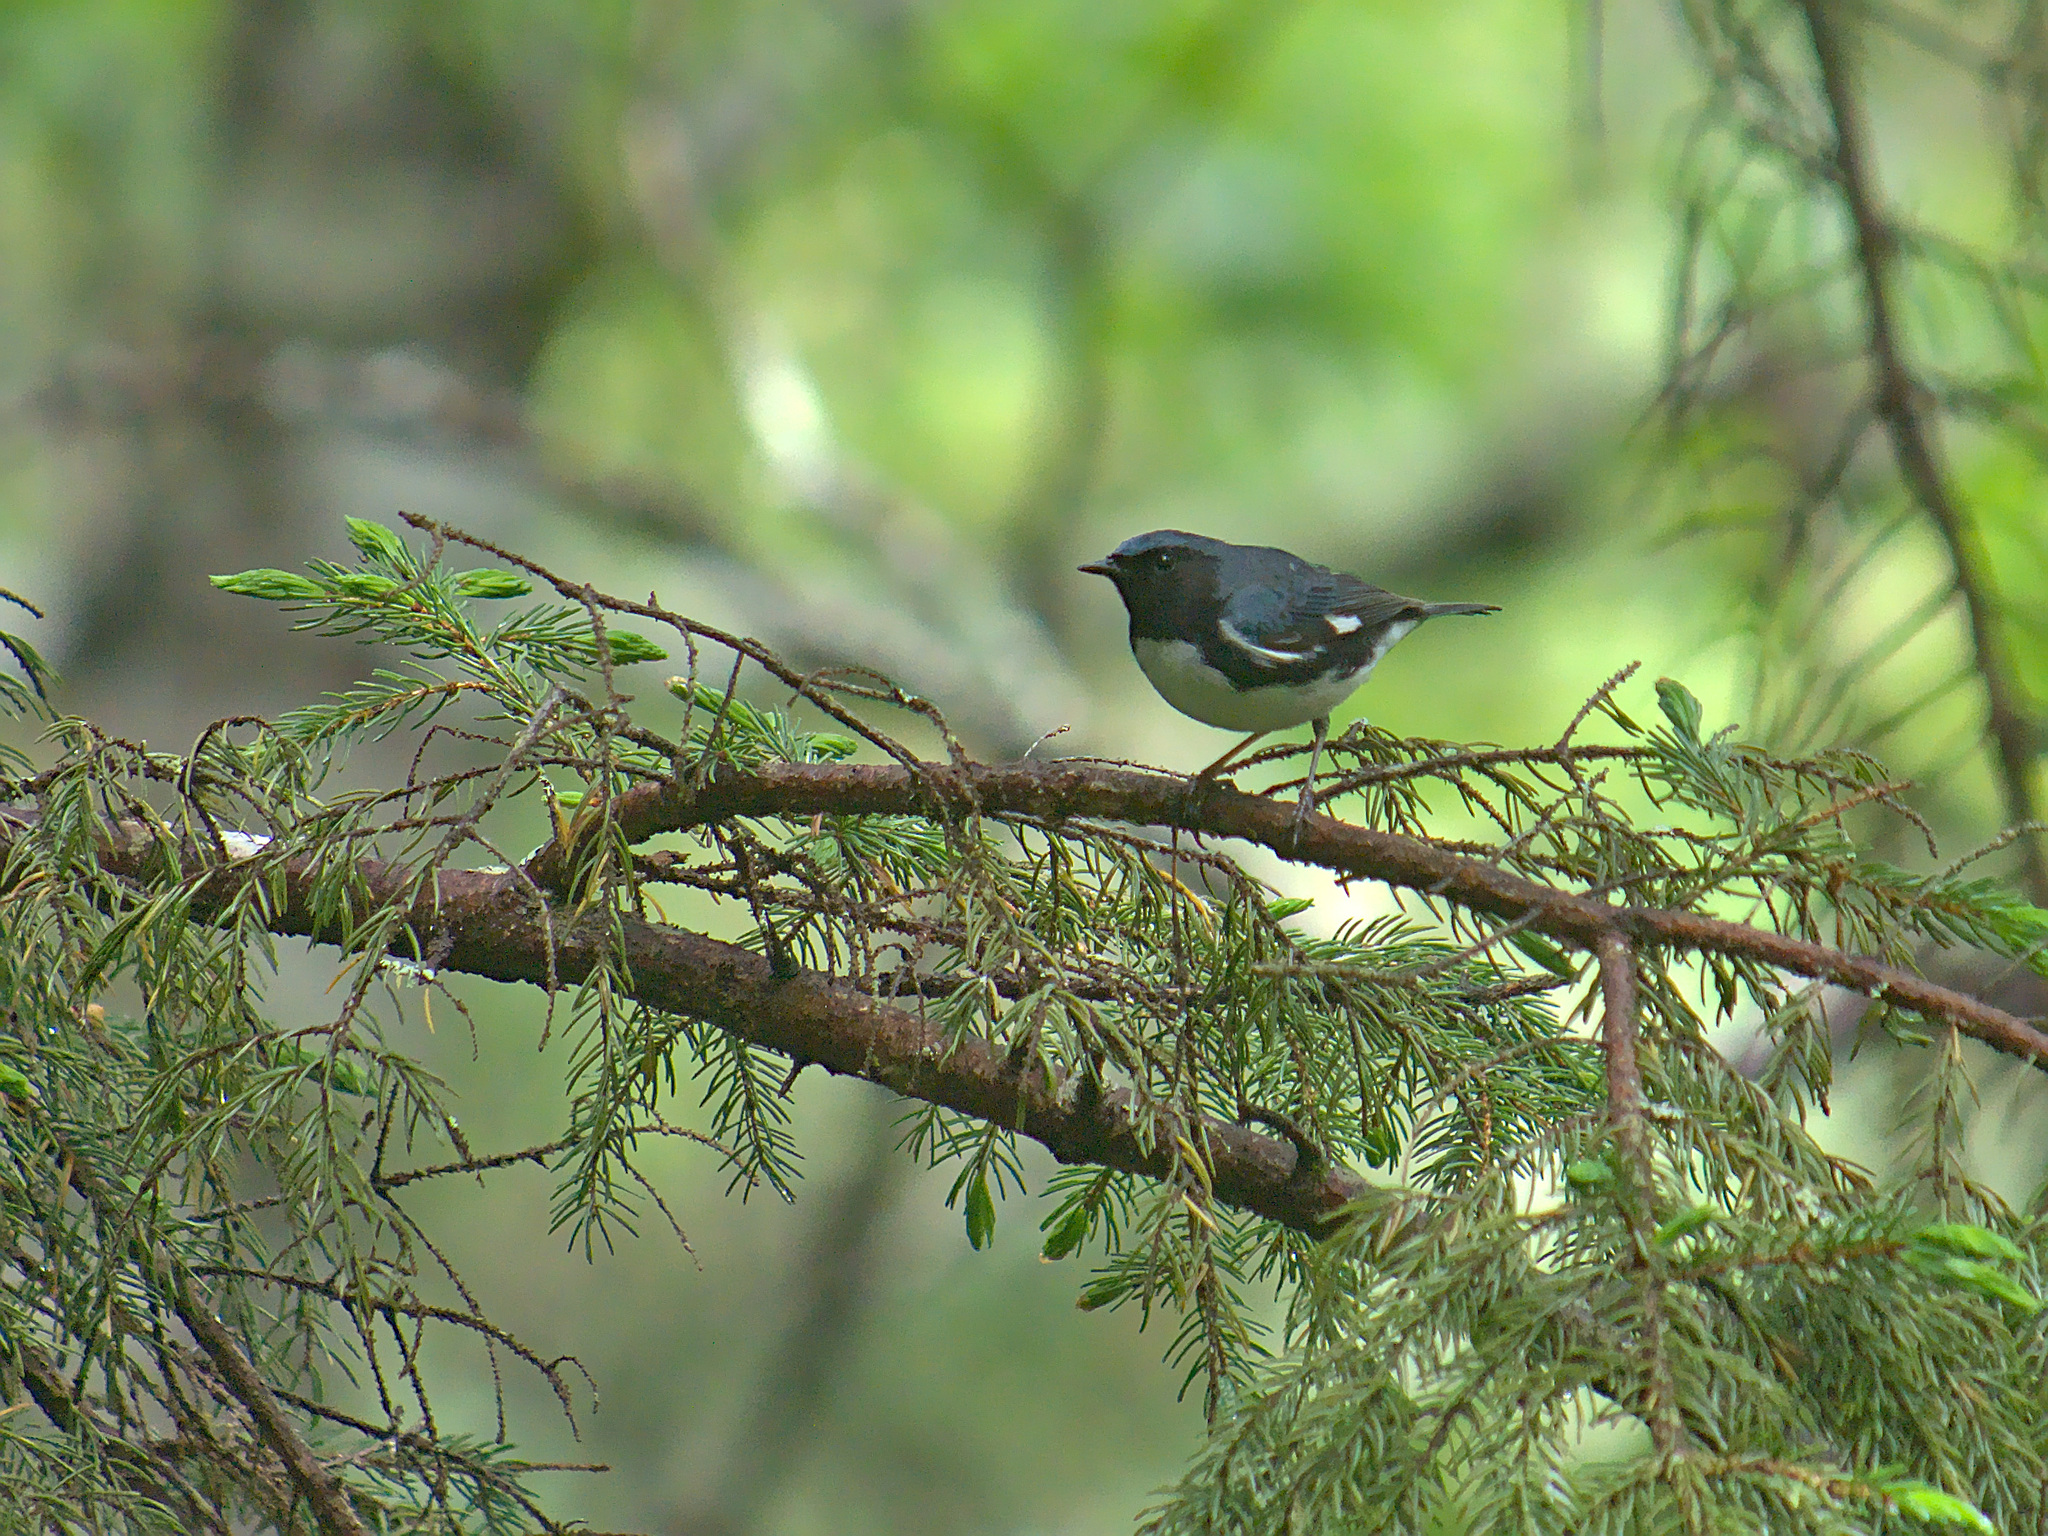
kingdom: Animalia
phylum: Chordata
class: Aves
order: Passeriformes
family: Parulidae
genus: Setophaga
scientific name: Setophaga caerulescens
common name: Black-throated blue warbler
